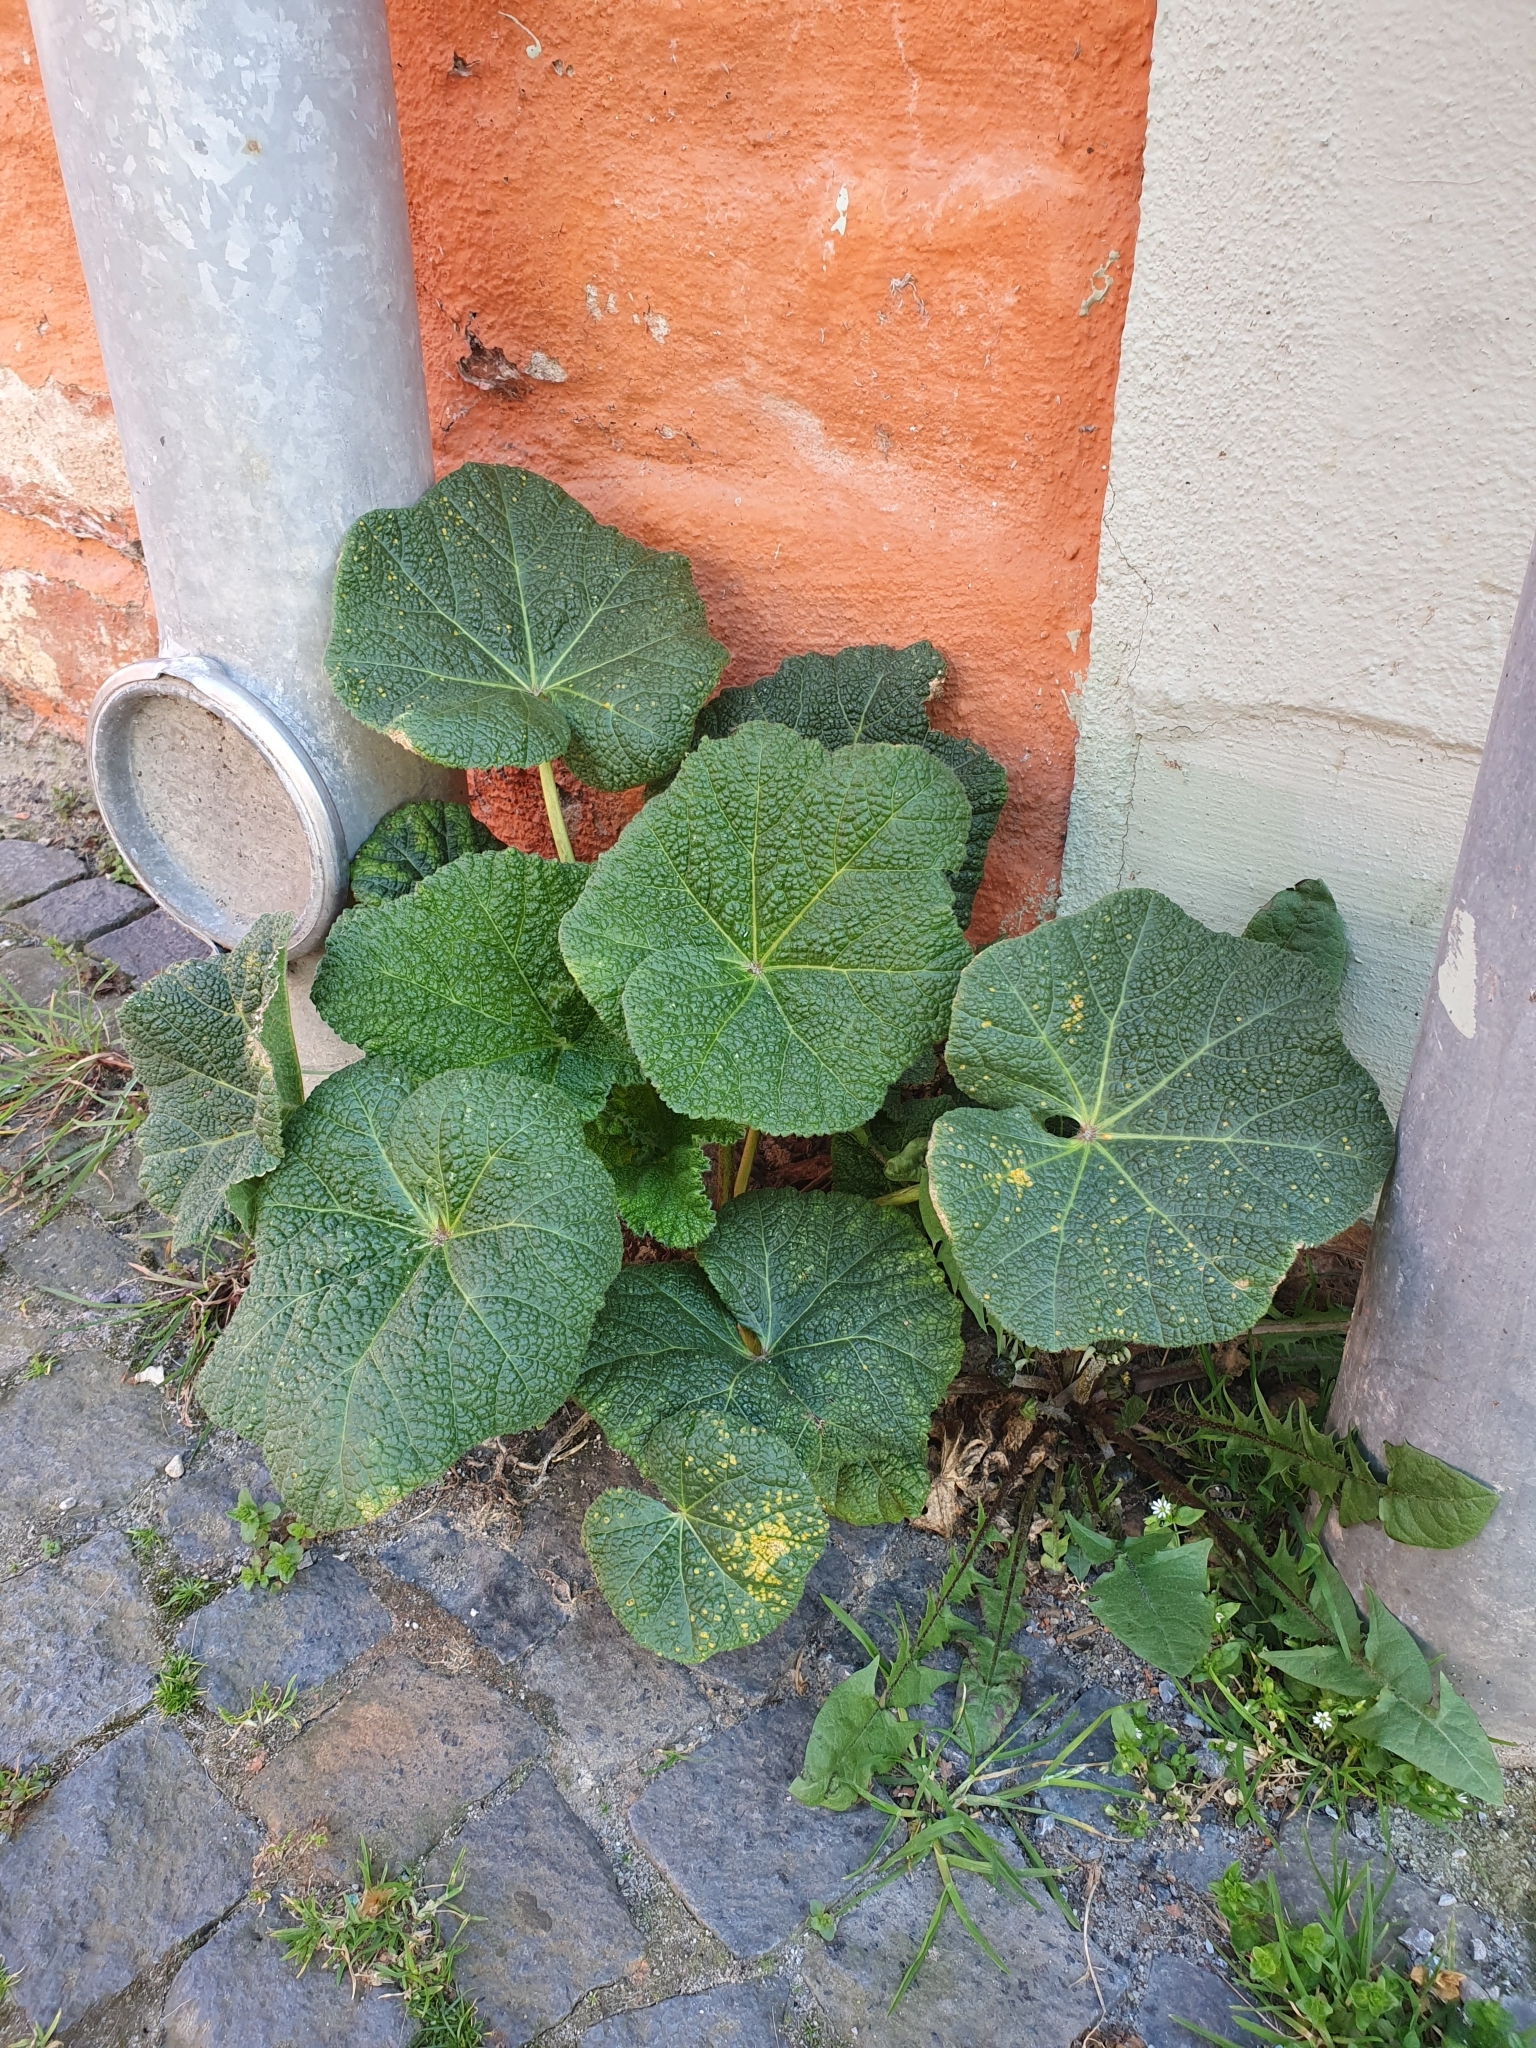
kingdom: Plantae
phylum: Tracheophyta
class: Magnoliopsida
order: Malvales
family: Malvaceae
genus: Alcea
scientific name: Alcea rosea
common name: Hollyhock
